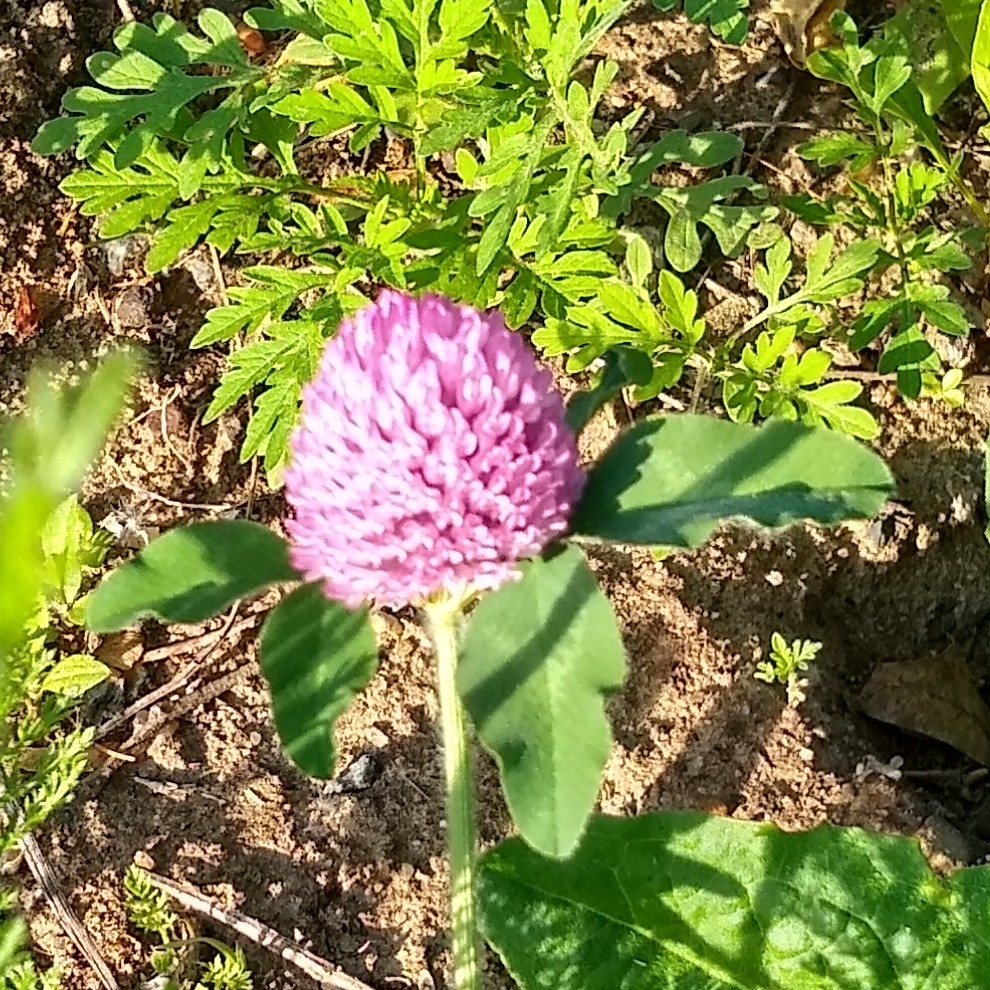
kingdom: Plantae
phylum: Tracheophyta
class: Magnoliopsida
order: Fabales
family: Fabaceae
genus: Trifolium
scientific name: Trifolium pratense
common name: Red clover
